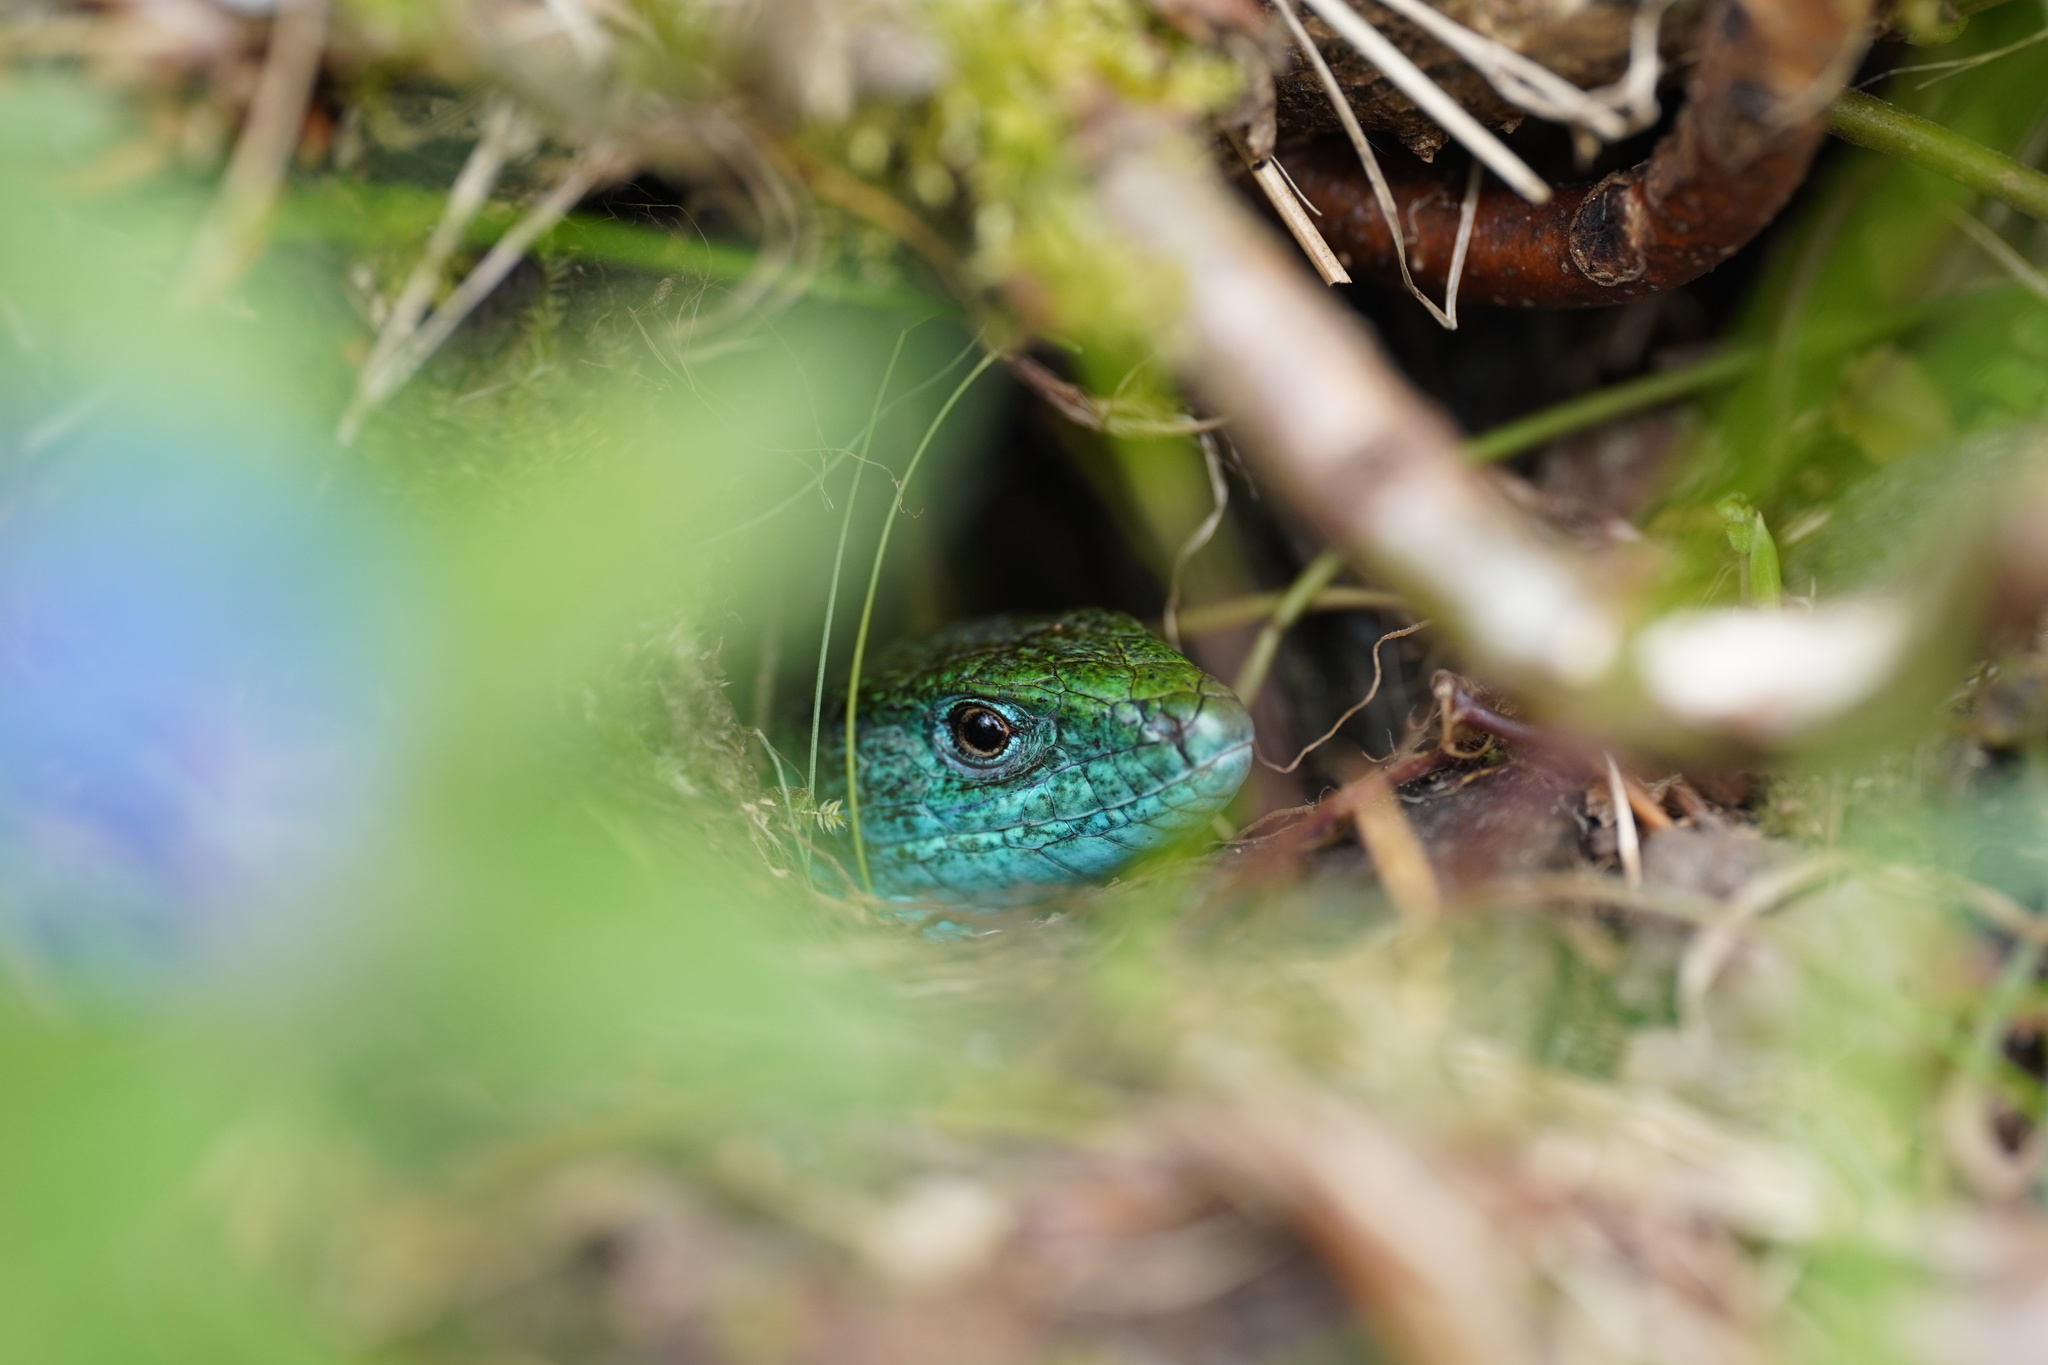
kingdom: Animalia
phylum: Chordata
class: Squamata
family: Lacertidae
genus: Lacerta
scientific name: Lacerta viridis
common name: European green lizard
